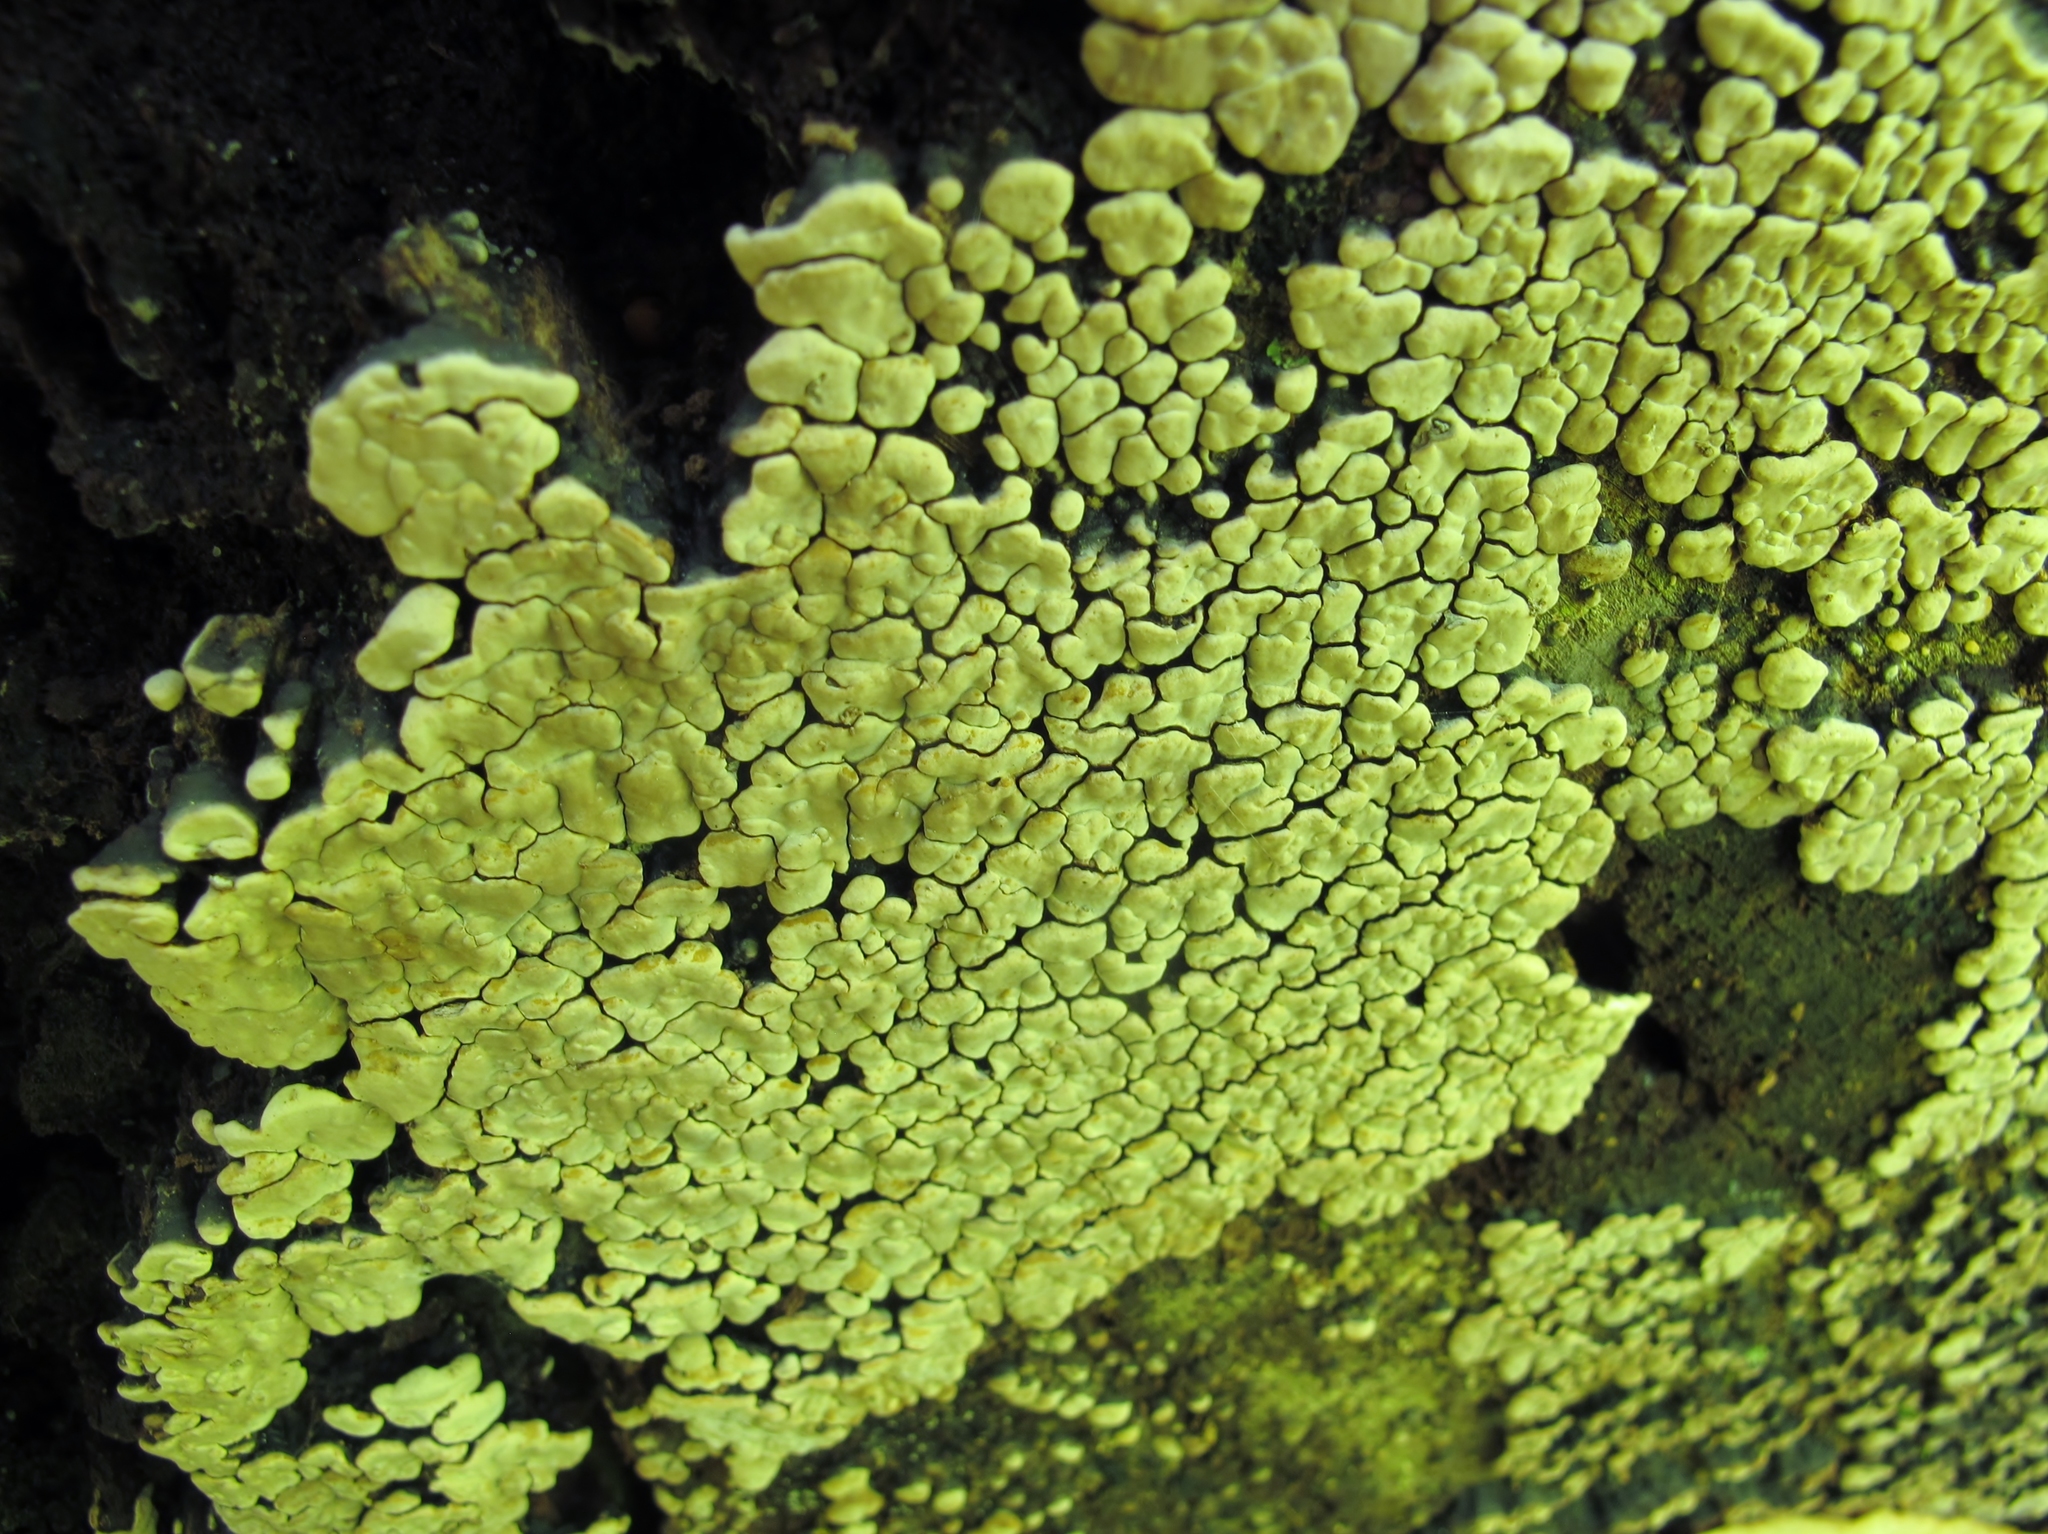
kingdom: Fungi
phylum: Basidiomycota
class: Agaricomycetes
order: Russulales
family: Stereaceae
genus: Xylobolus
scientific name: Xylobolus frustulatus
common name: Ceramic parchment
